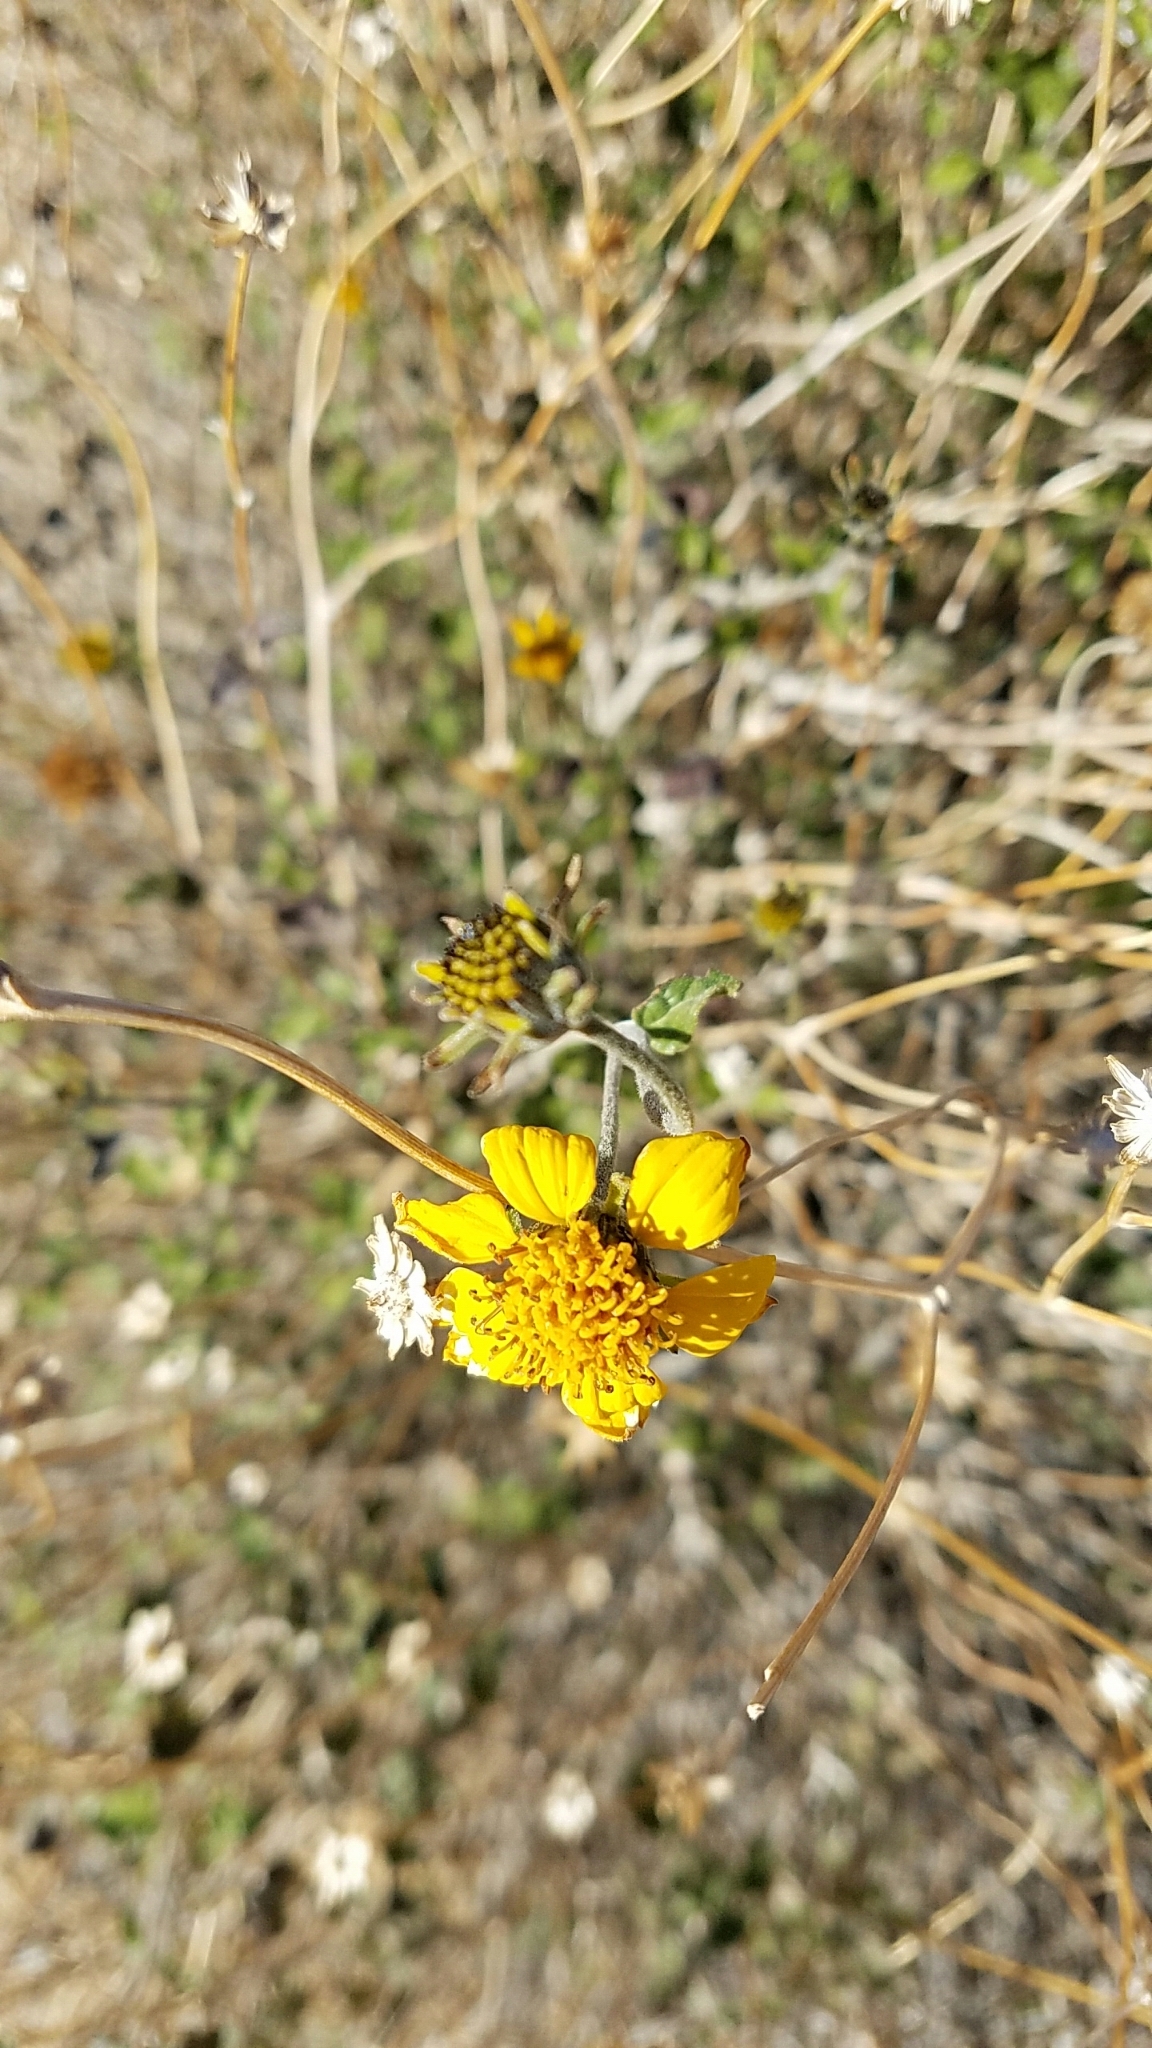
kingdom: Plantae
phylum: Tracheophyta
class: Magnoliopsida
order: Asterales
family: Asteraceae
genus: Bahiopsis
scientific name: Bahiopsis parishii
